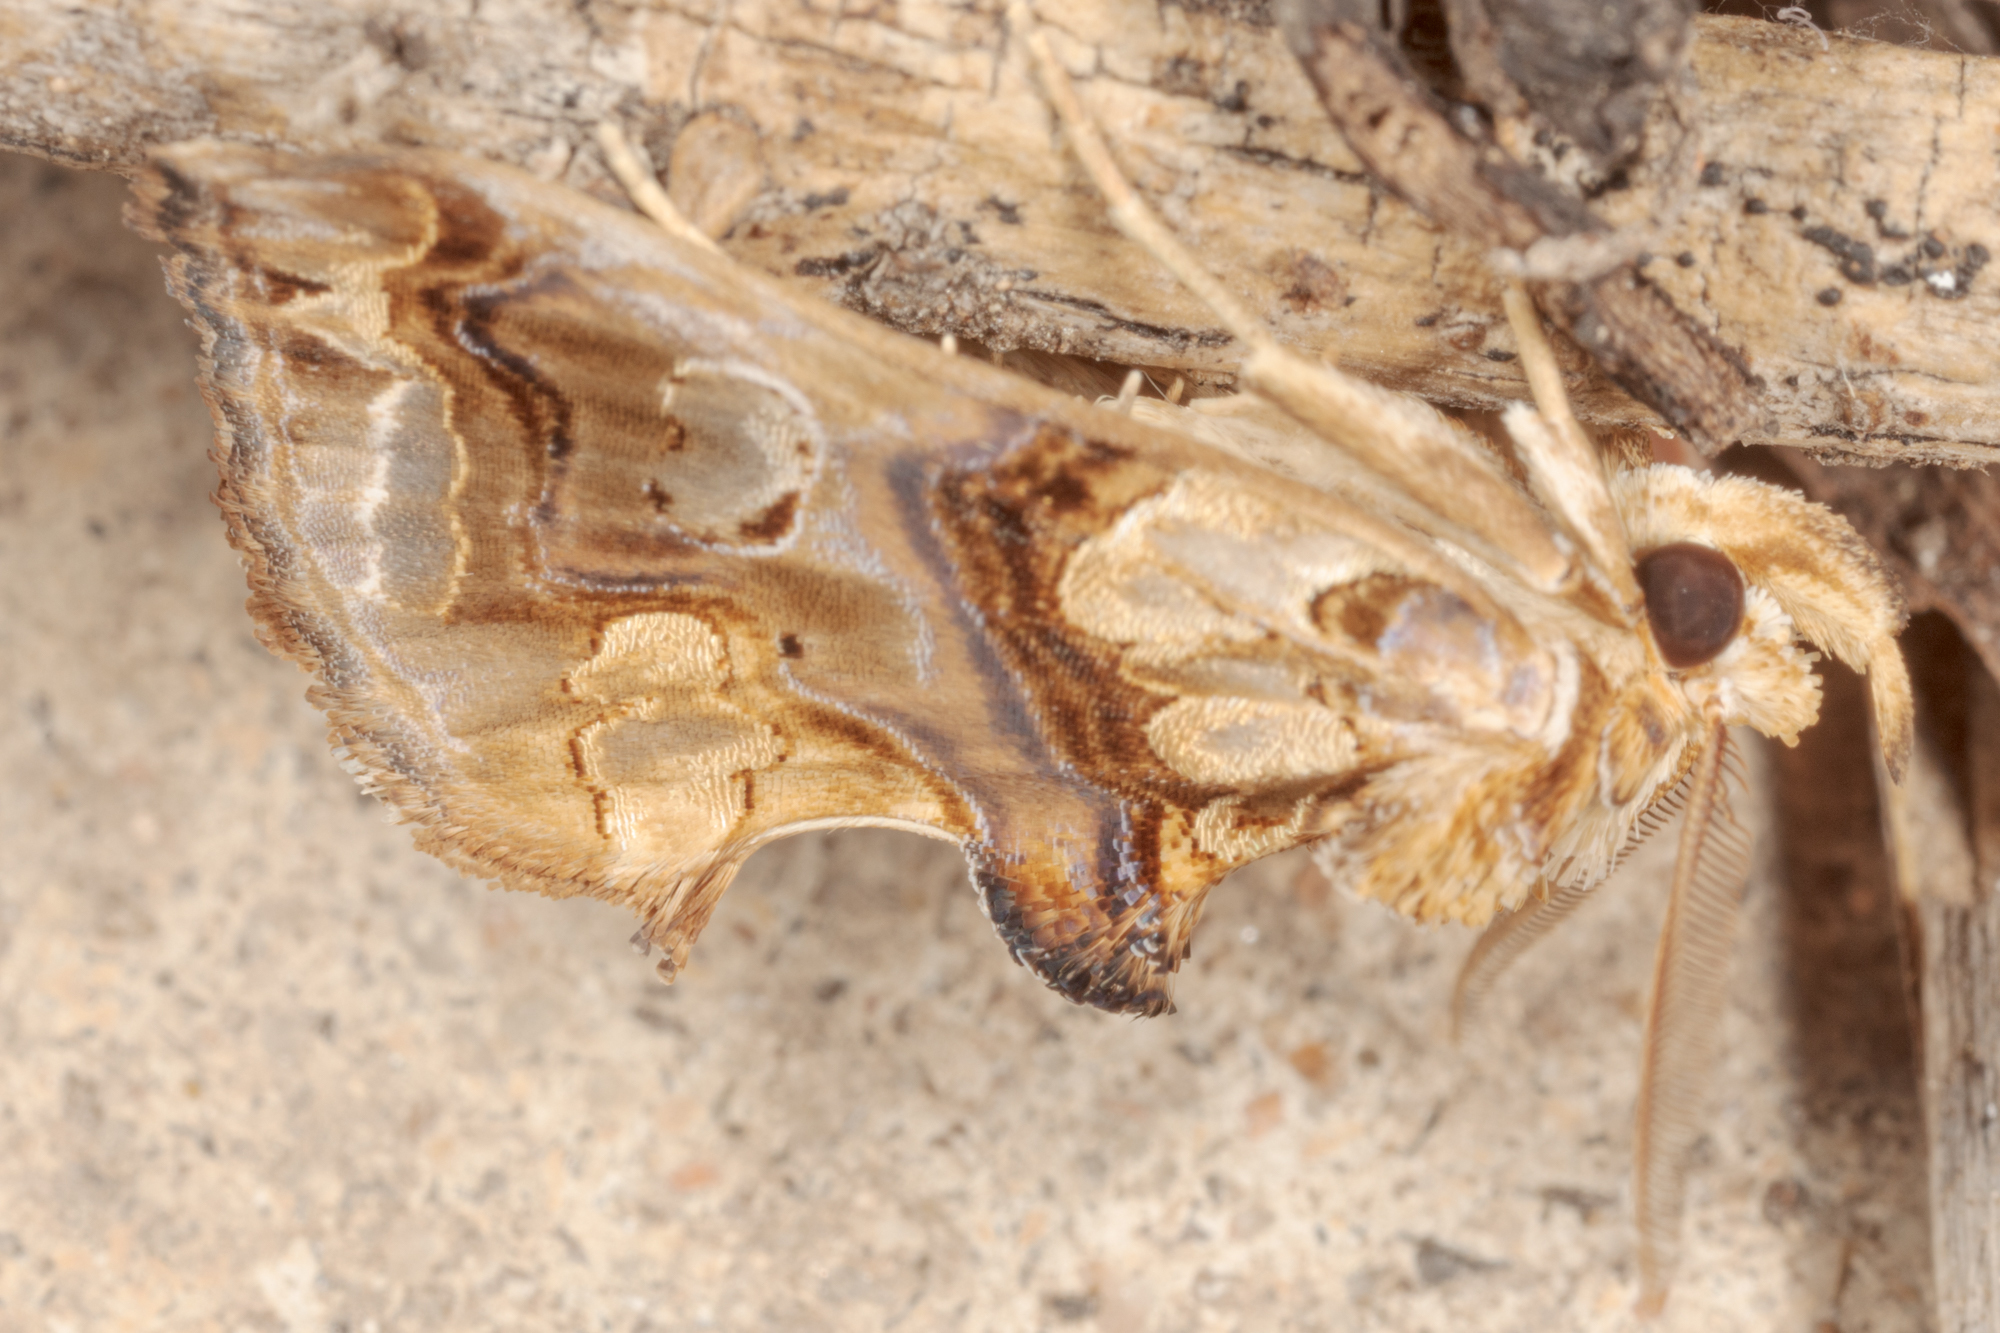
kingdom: Animalia
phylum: Arthropoda
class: Insecta
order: Lepidoptera
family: Erebidae
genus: Plusiodonta
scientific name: Plusiodonta compressipalpis
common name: Moonseed moth
